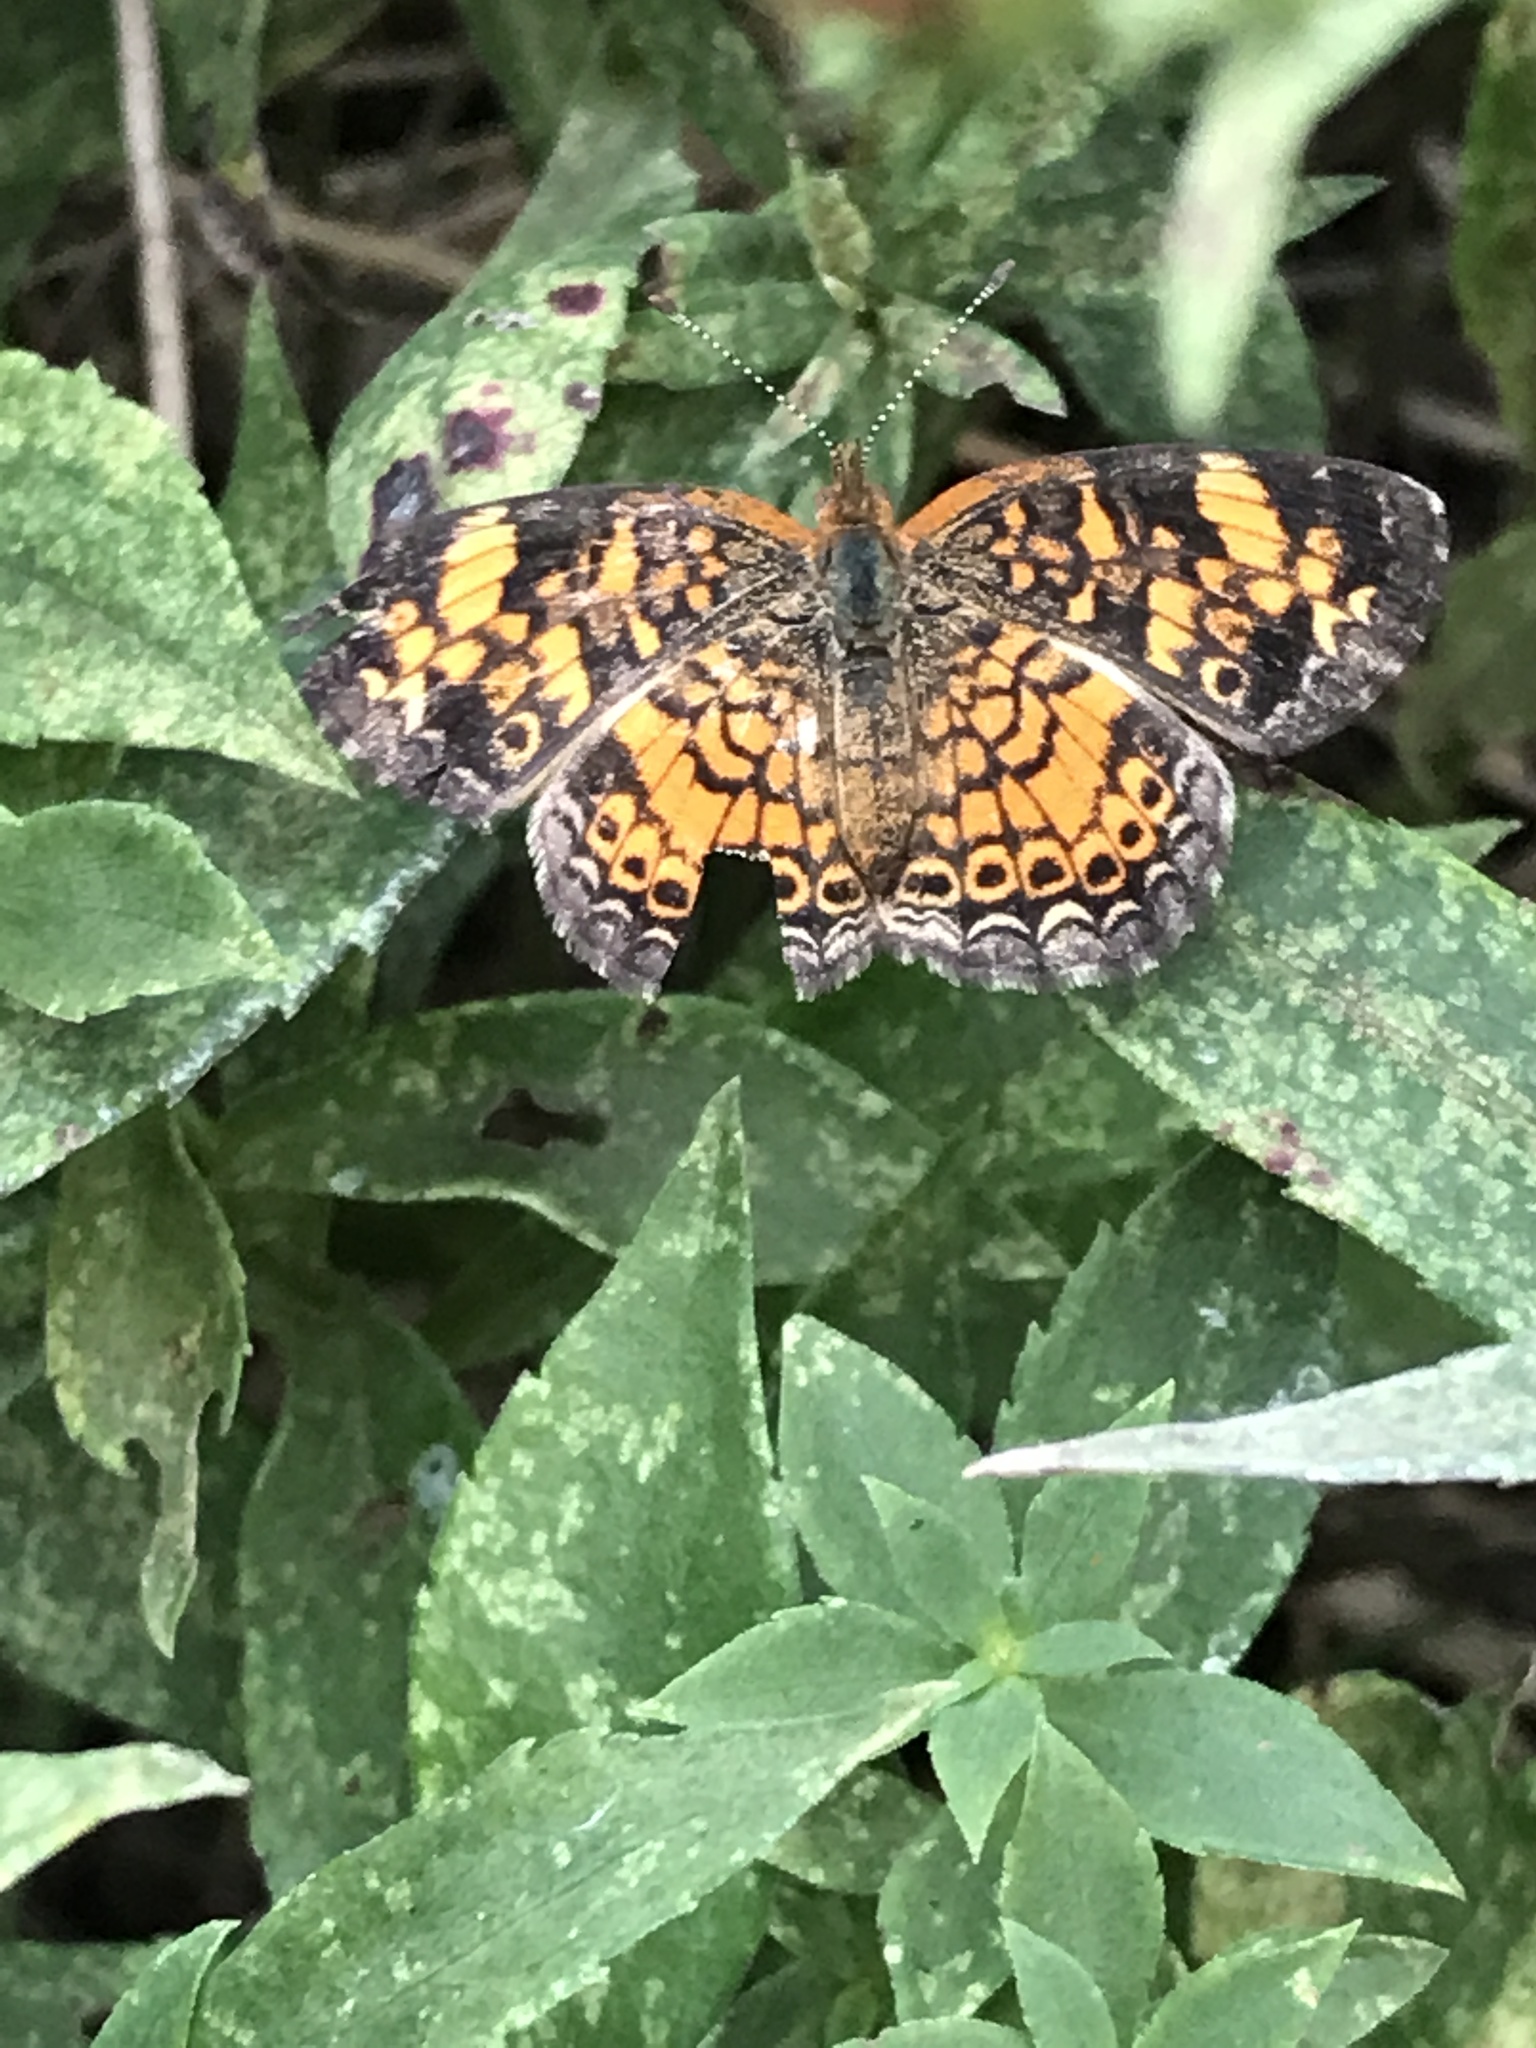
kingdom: Animalia
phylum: Arthropoda
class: Insecta
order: Lepidoptera
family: Nymphalidae
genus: Phyciodes
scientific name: Phyciodes tharos
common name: Pearl crescent
